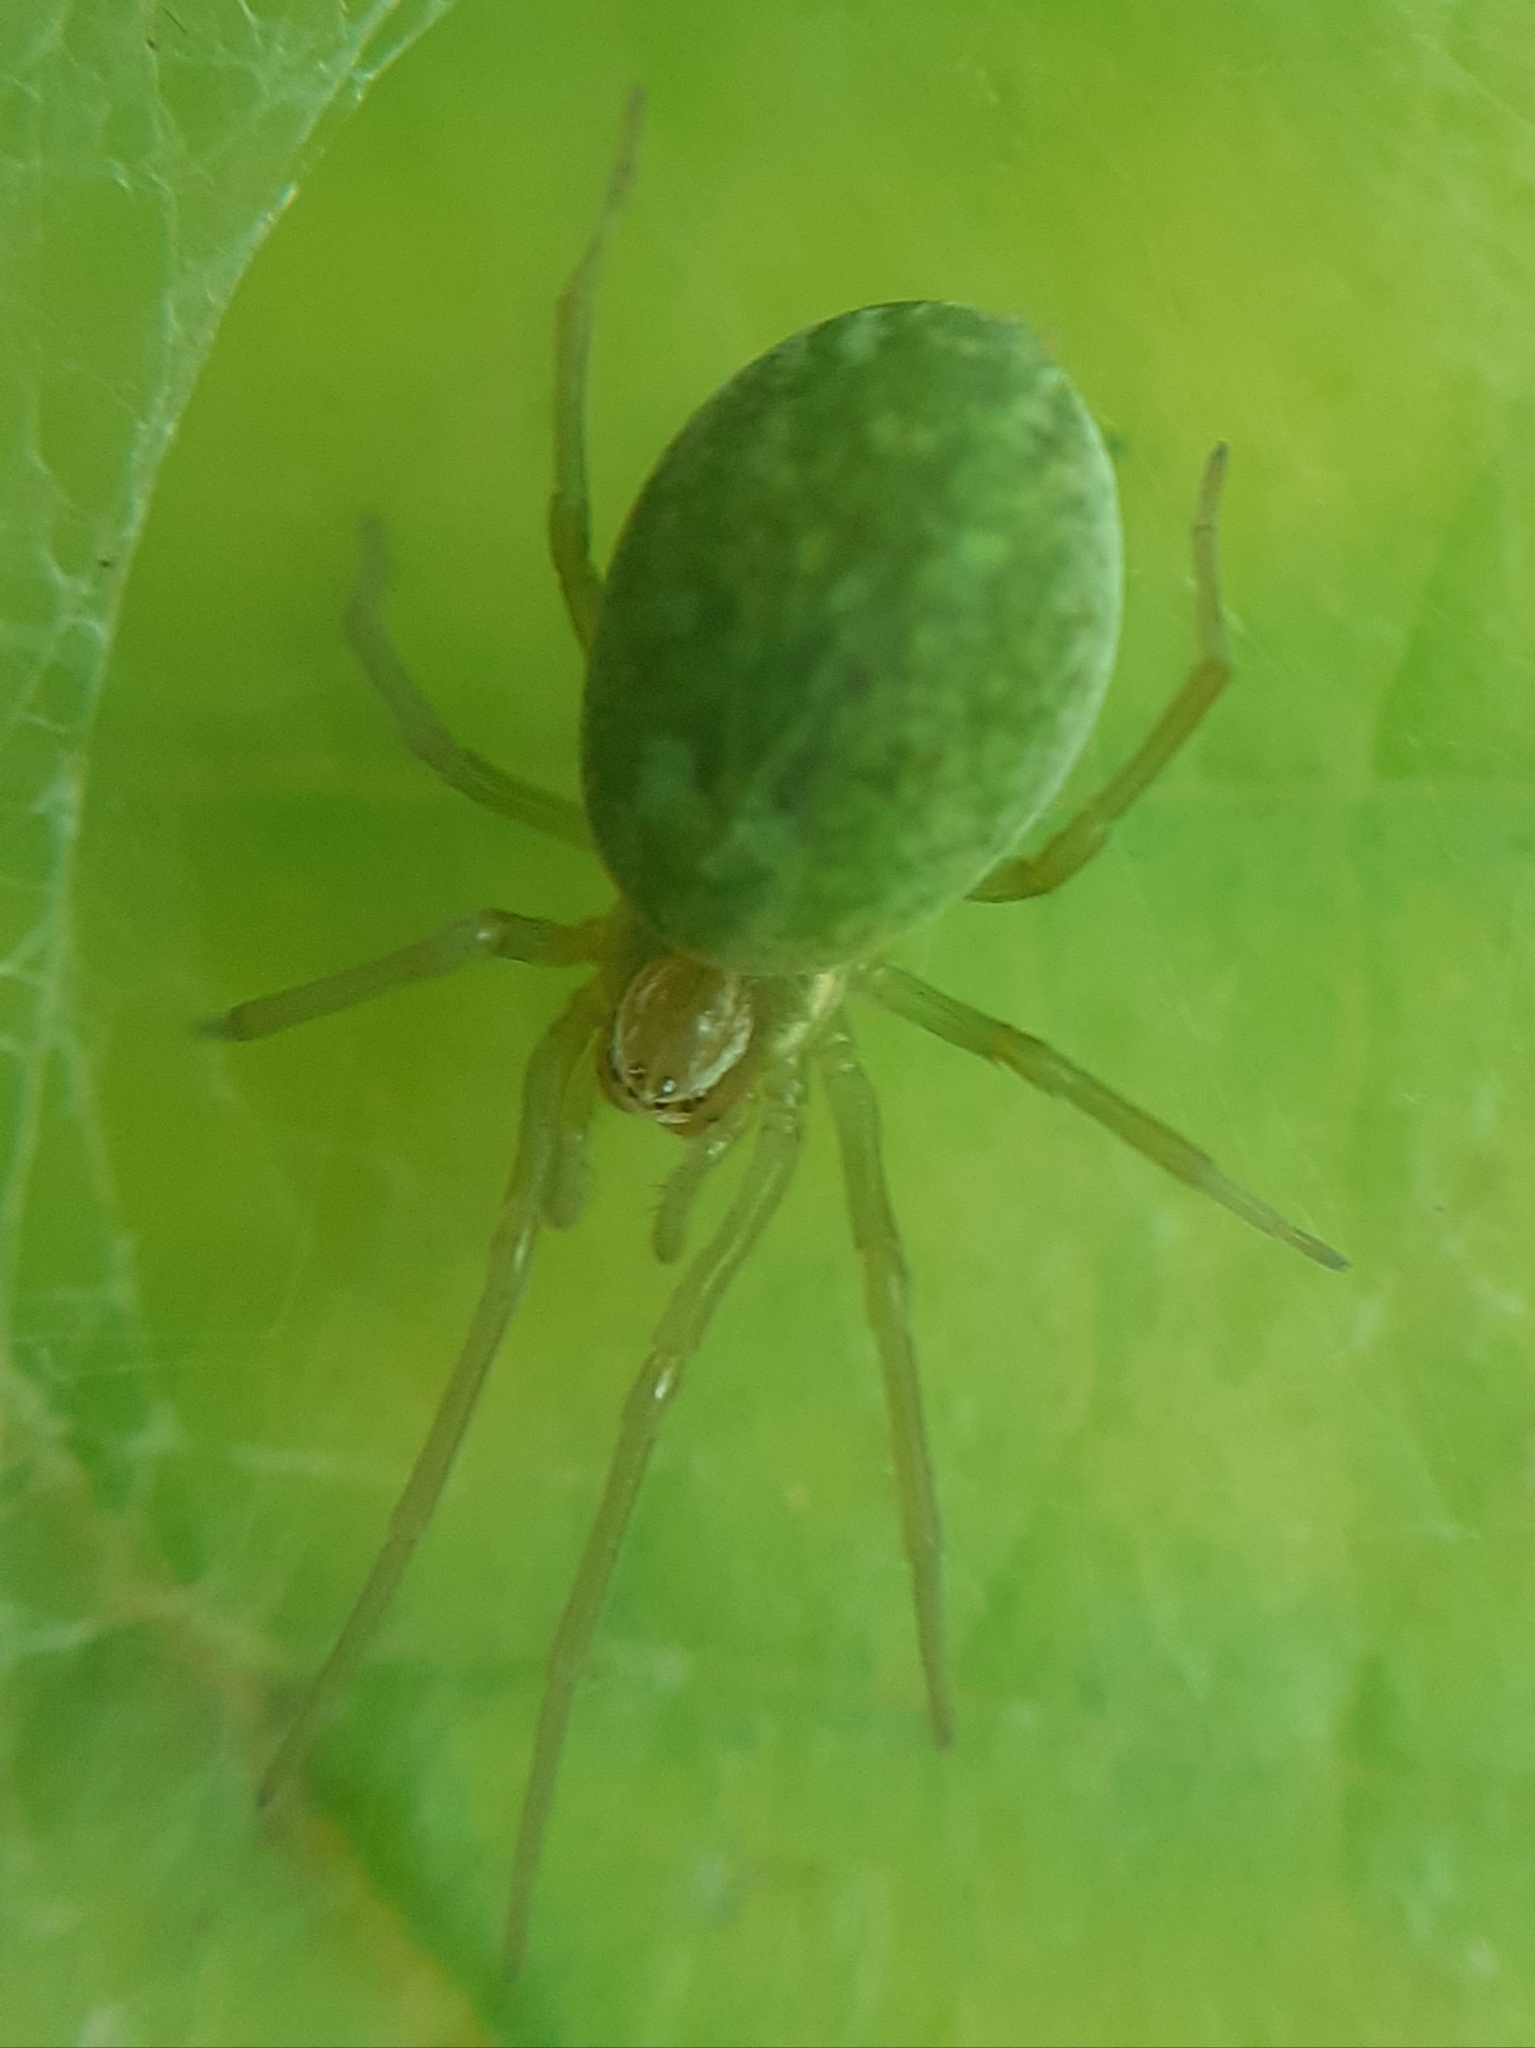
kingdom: Animalia
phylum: Arthropoda
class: Arachnida
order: Araneae
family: Dictynidae
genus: Nigma
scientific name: Nigma walckenaeri
